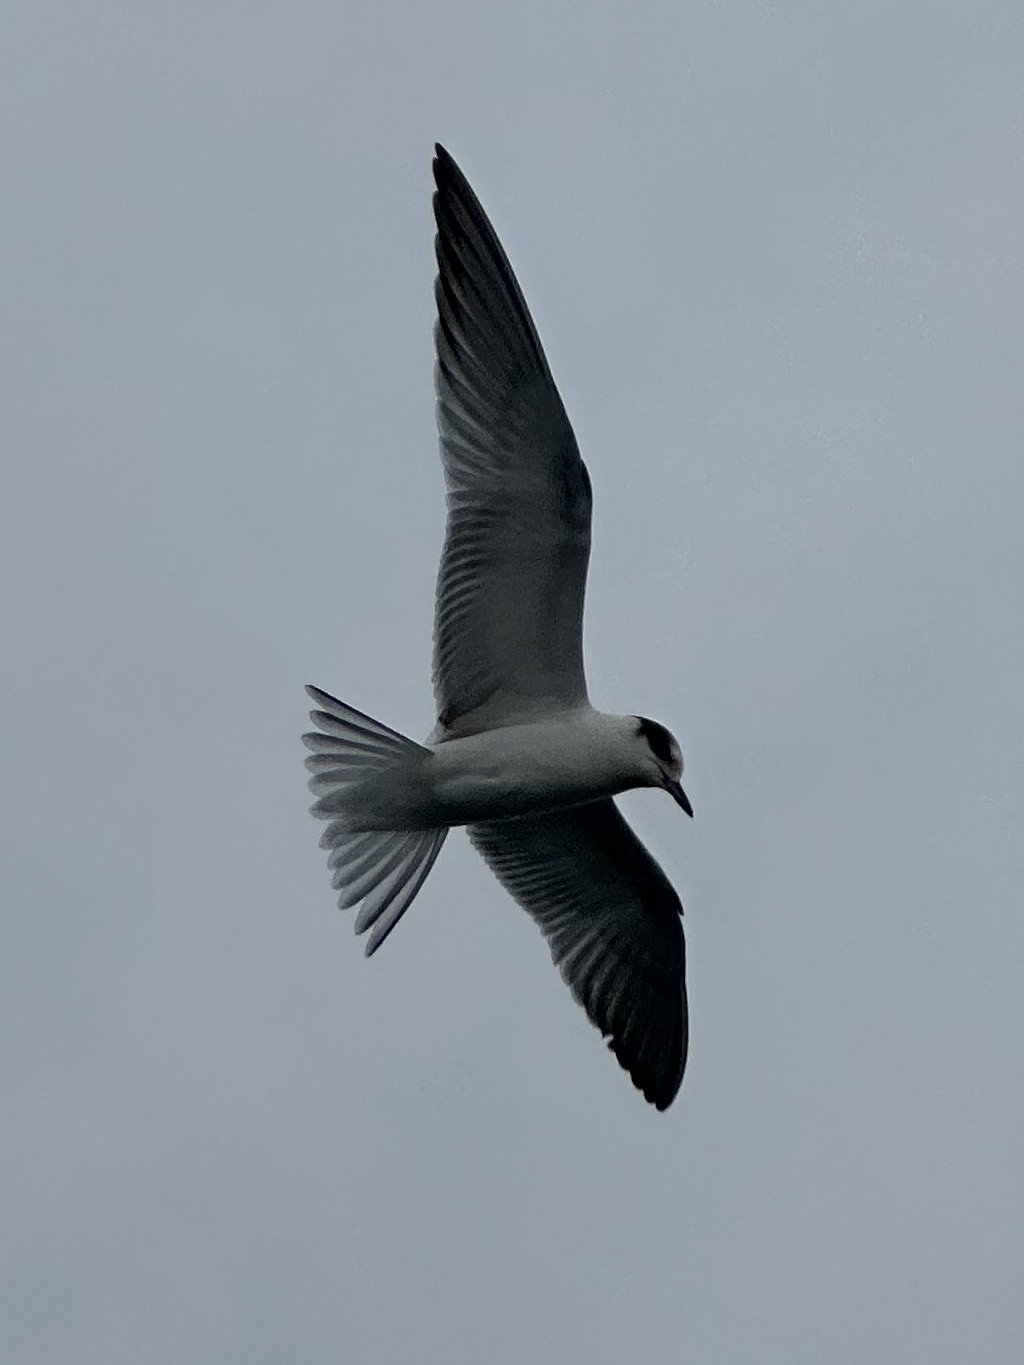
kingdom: Animalia
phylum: Chordata
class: Aves
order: Charadriiformes
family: Laridae
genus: Sterna
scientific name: Sterna hirundo
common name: Common tern
